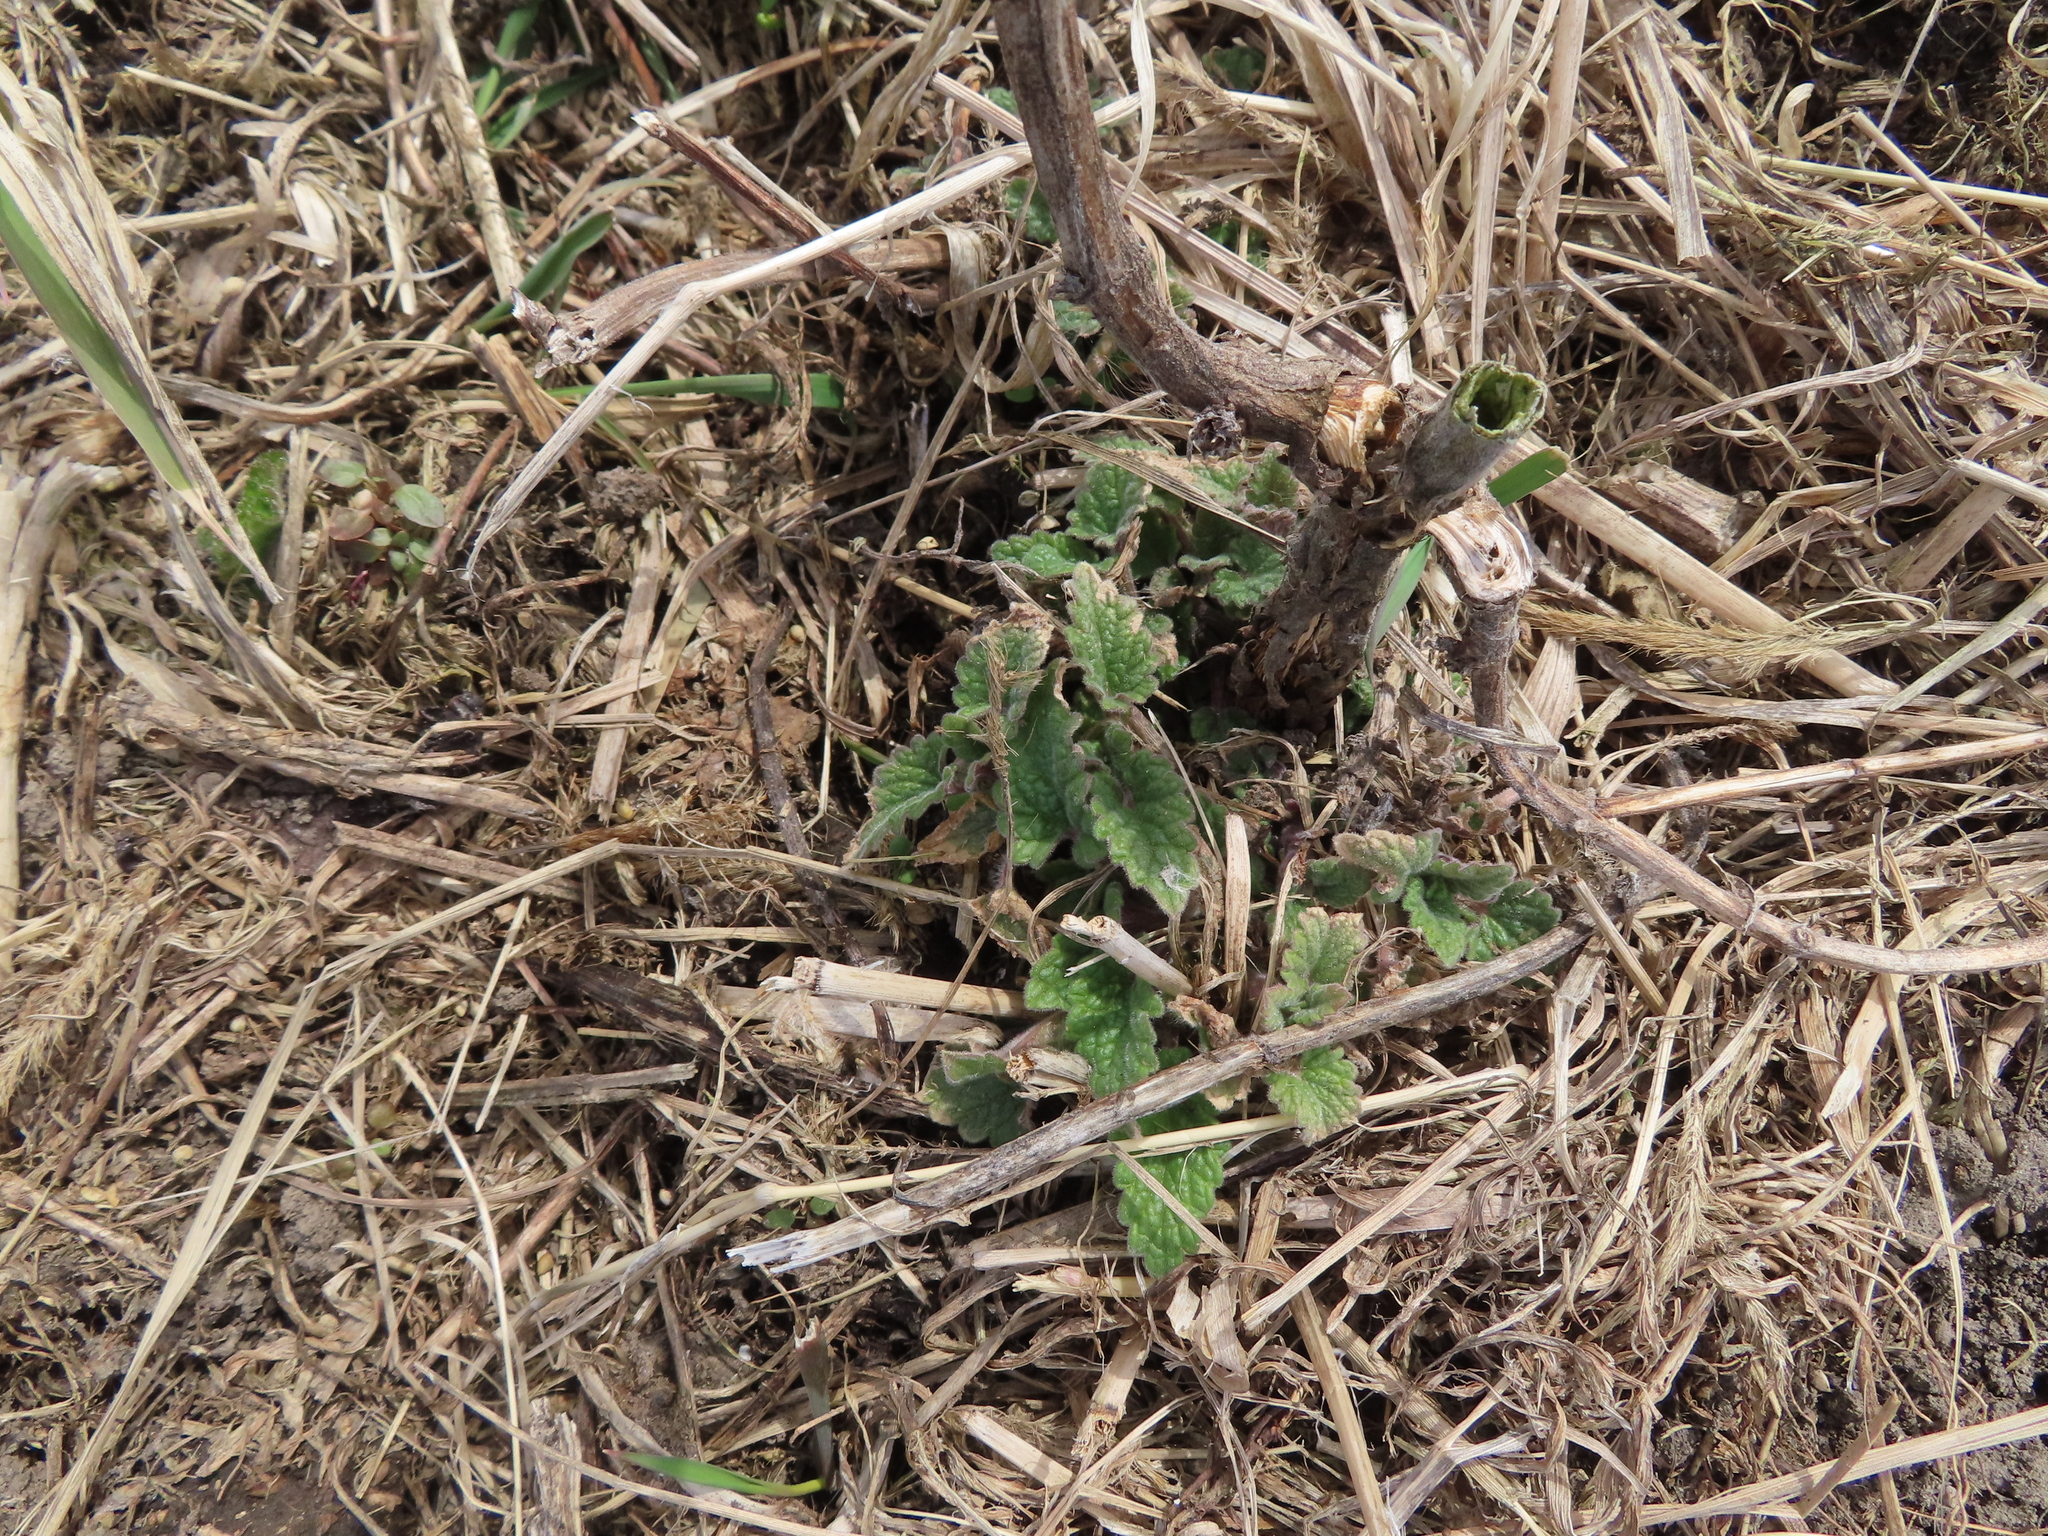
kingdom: Plantae
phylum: Tracheophyta
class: Magnoliopsida
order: Lamiales
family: Lamiaceae
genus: Nepeta
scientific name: Nepeta cataria
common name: Catnip
